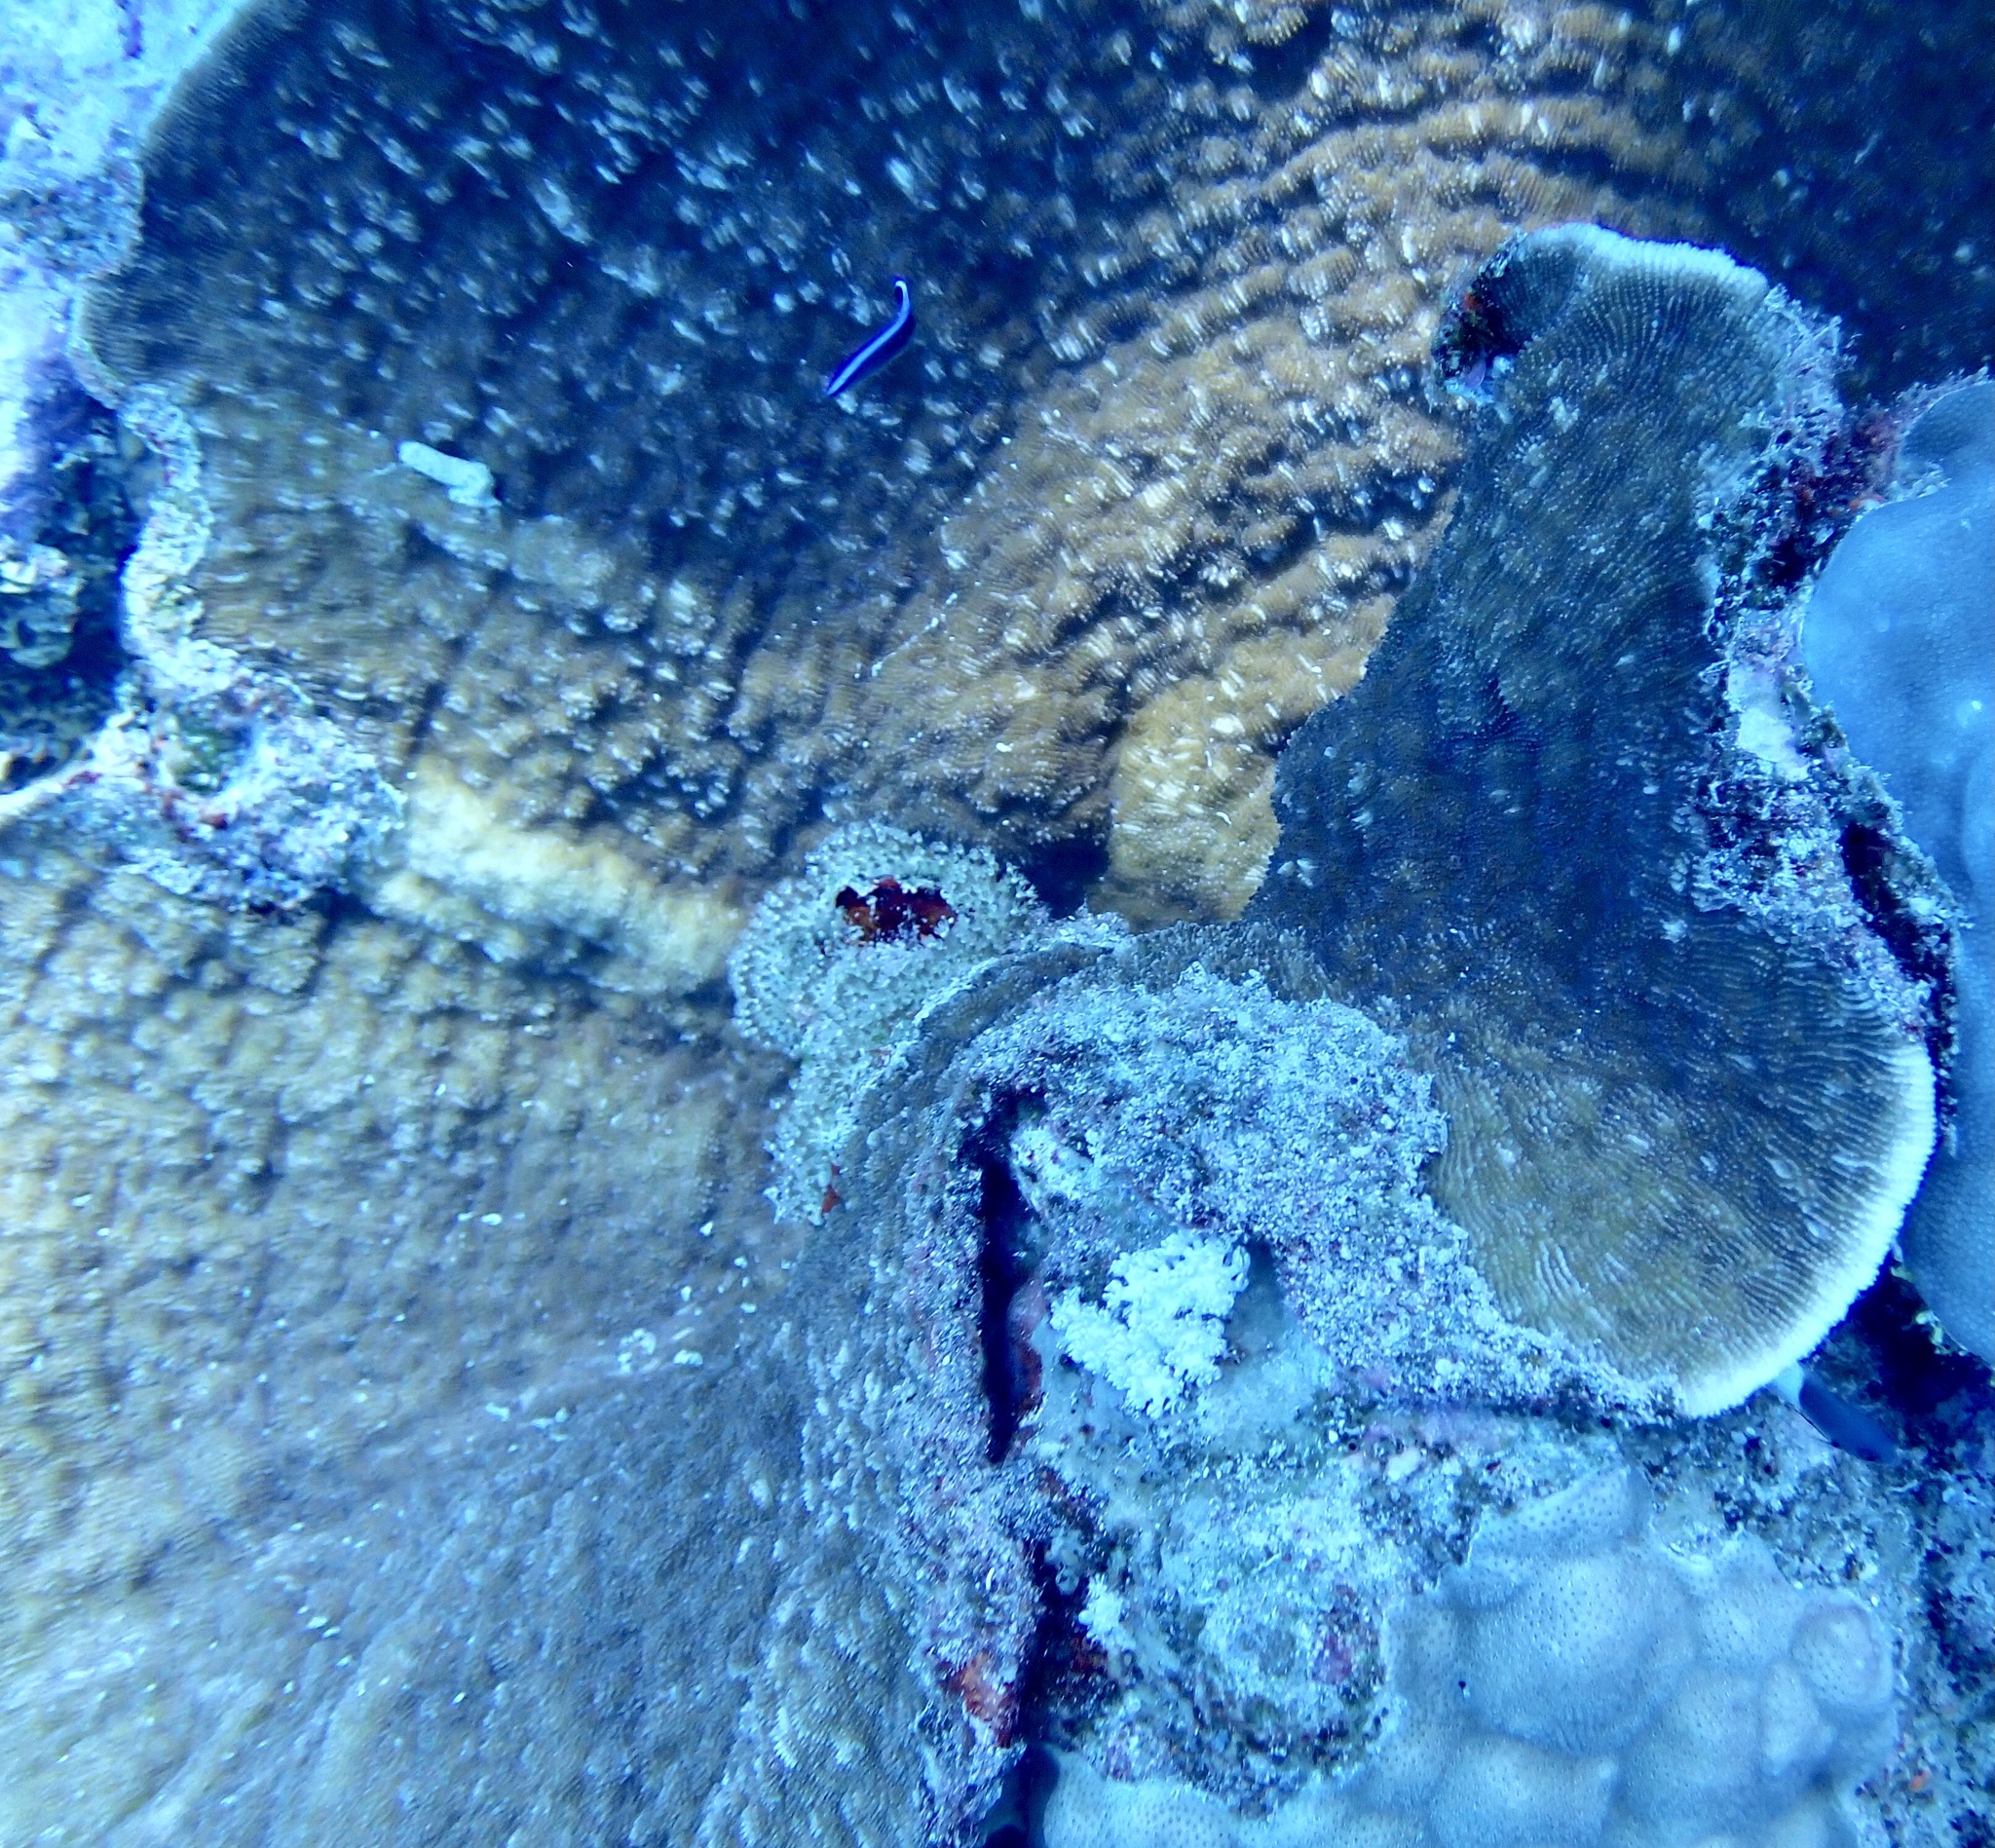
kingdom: Animalia
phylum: Cnidaria
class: Anthozoa
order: Scleractinia
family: Fungiidae
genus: Podabacia
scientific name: Podabacia sinai
